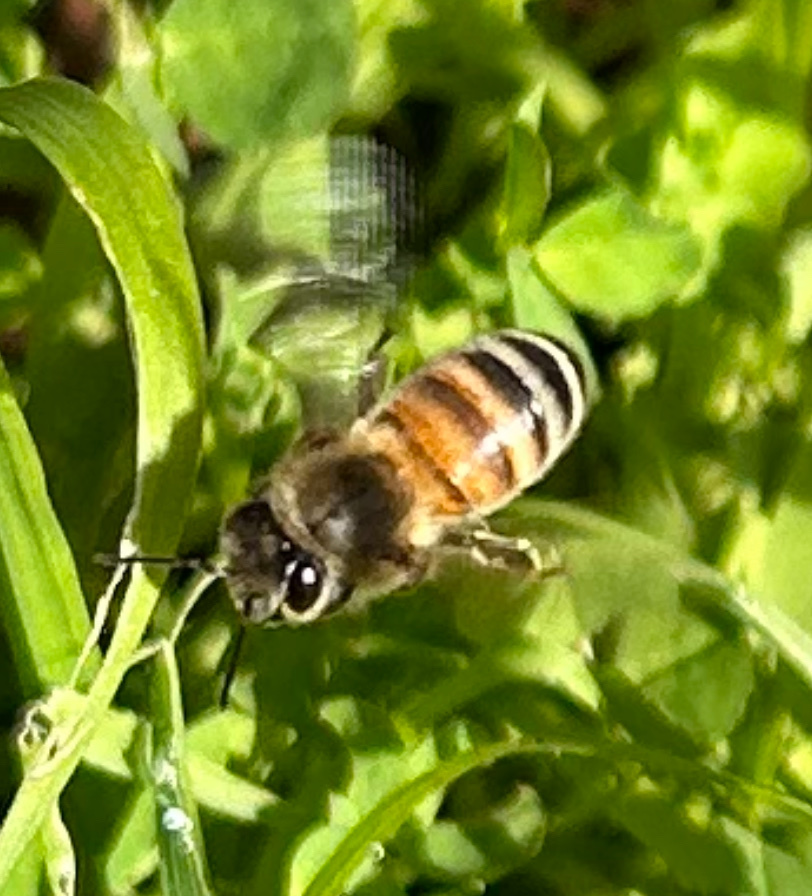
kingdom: Animalia
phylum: Arthropoda
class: Insecta
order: Hymenoptera
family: Apidae
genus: Apis
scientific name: Apis mellifera
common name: Honey bee
